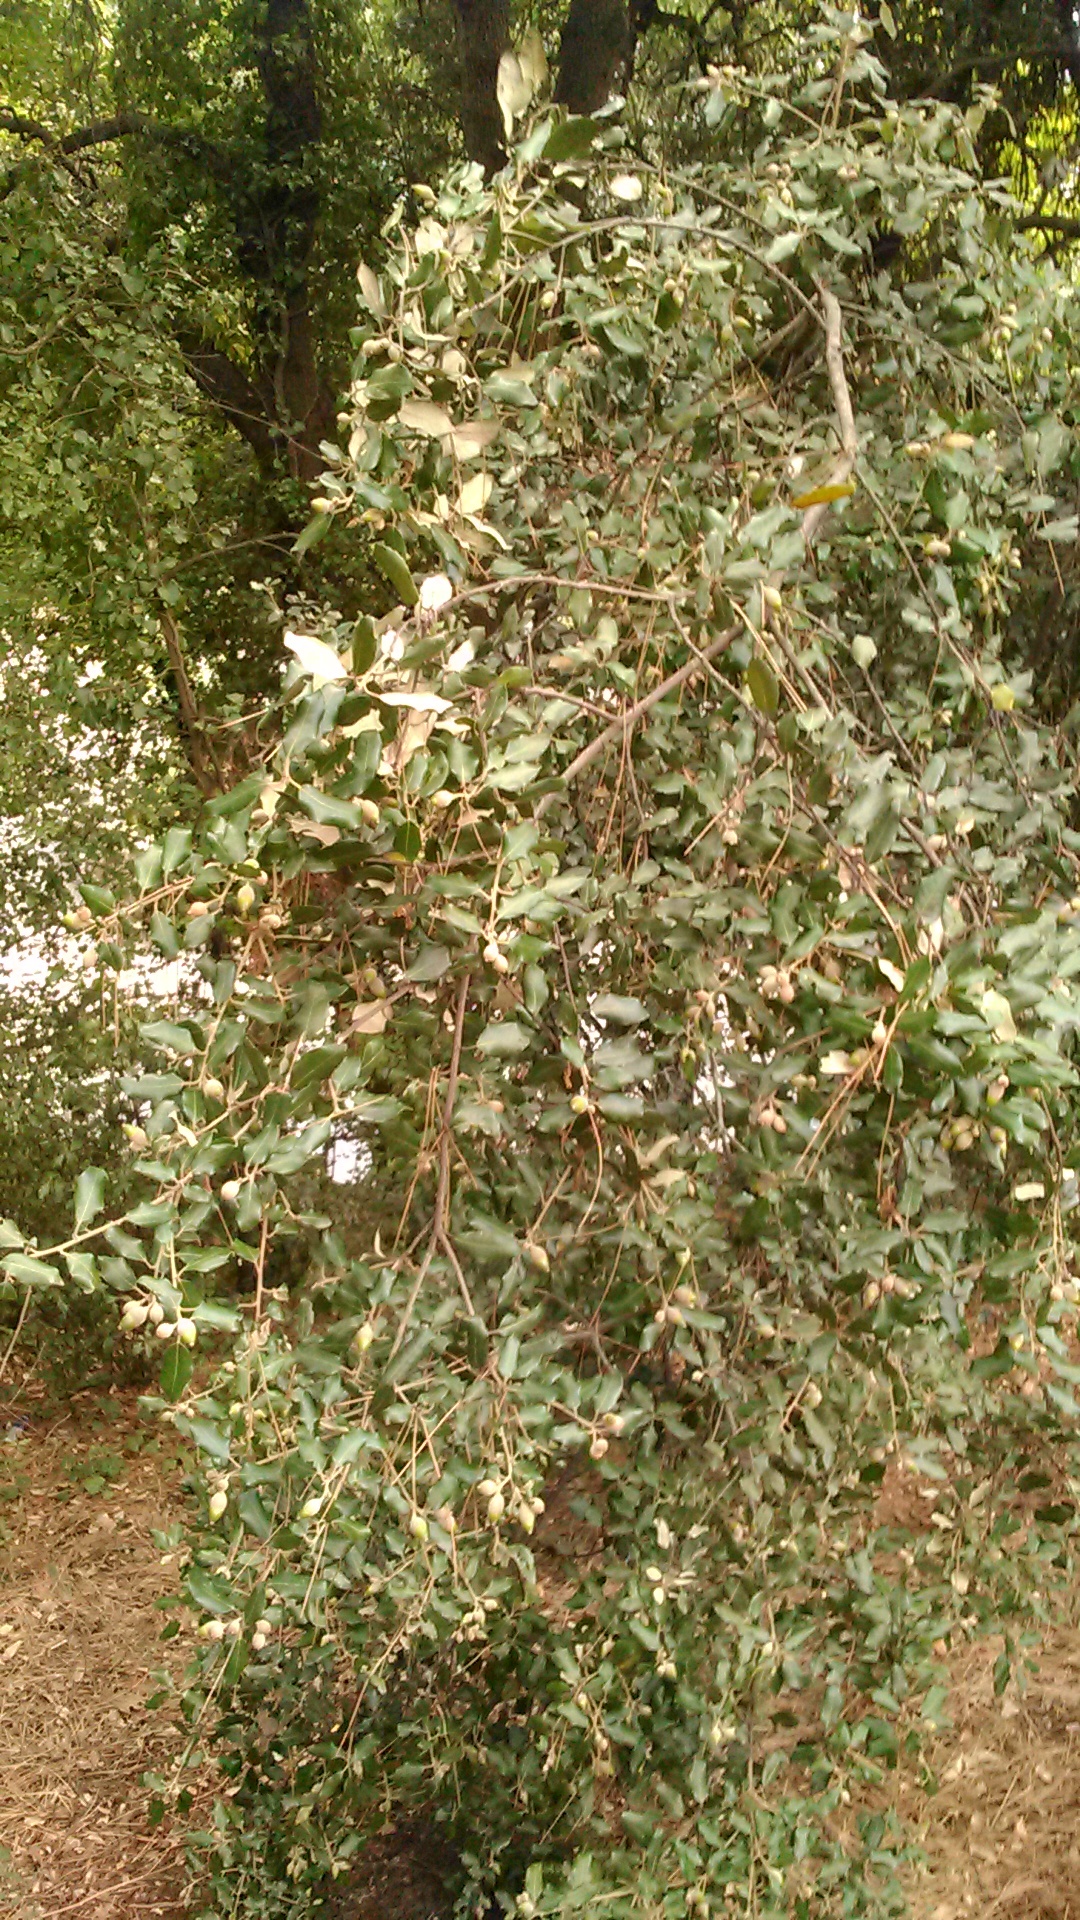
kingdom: Plantae
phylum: Tracheophyta
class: Magnoliopsida
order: Fagales
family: Fagaceae
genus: Quercus
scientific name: Quercus ilex
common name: Evergreen oak
